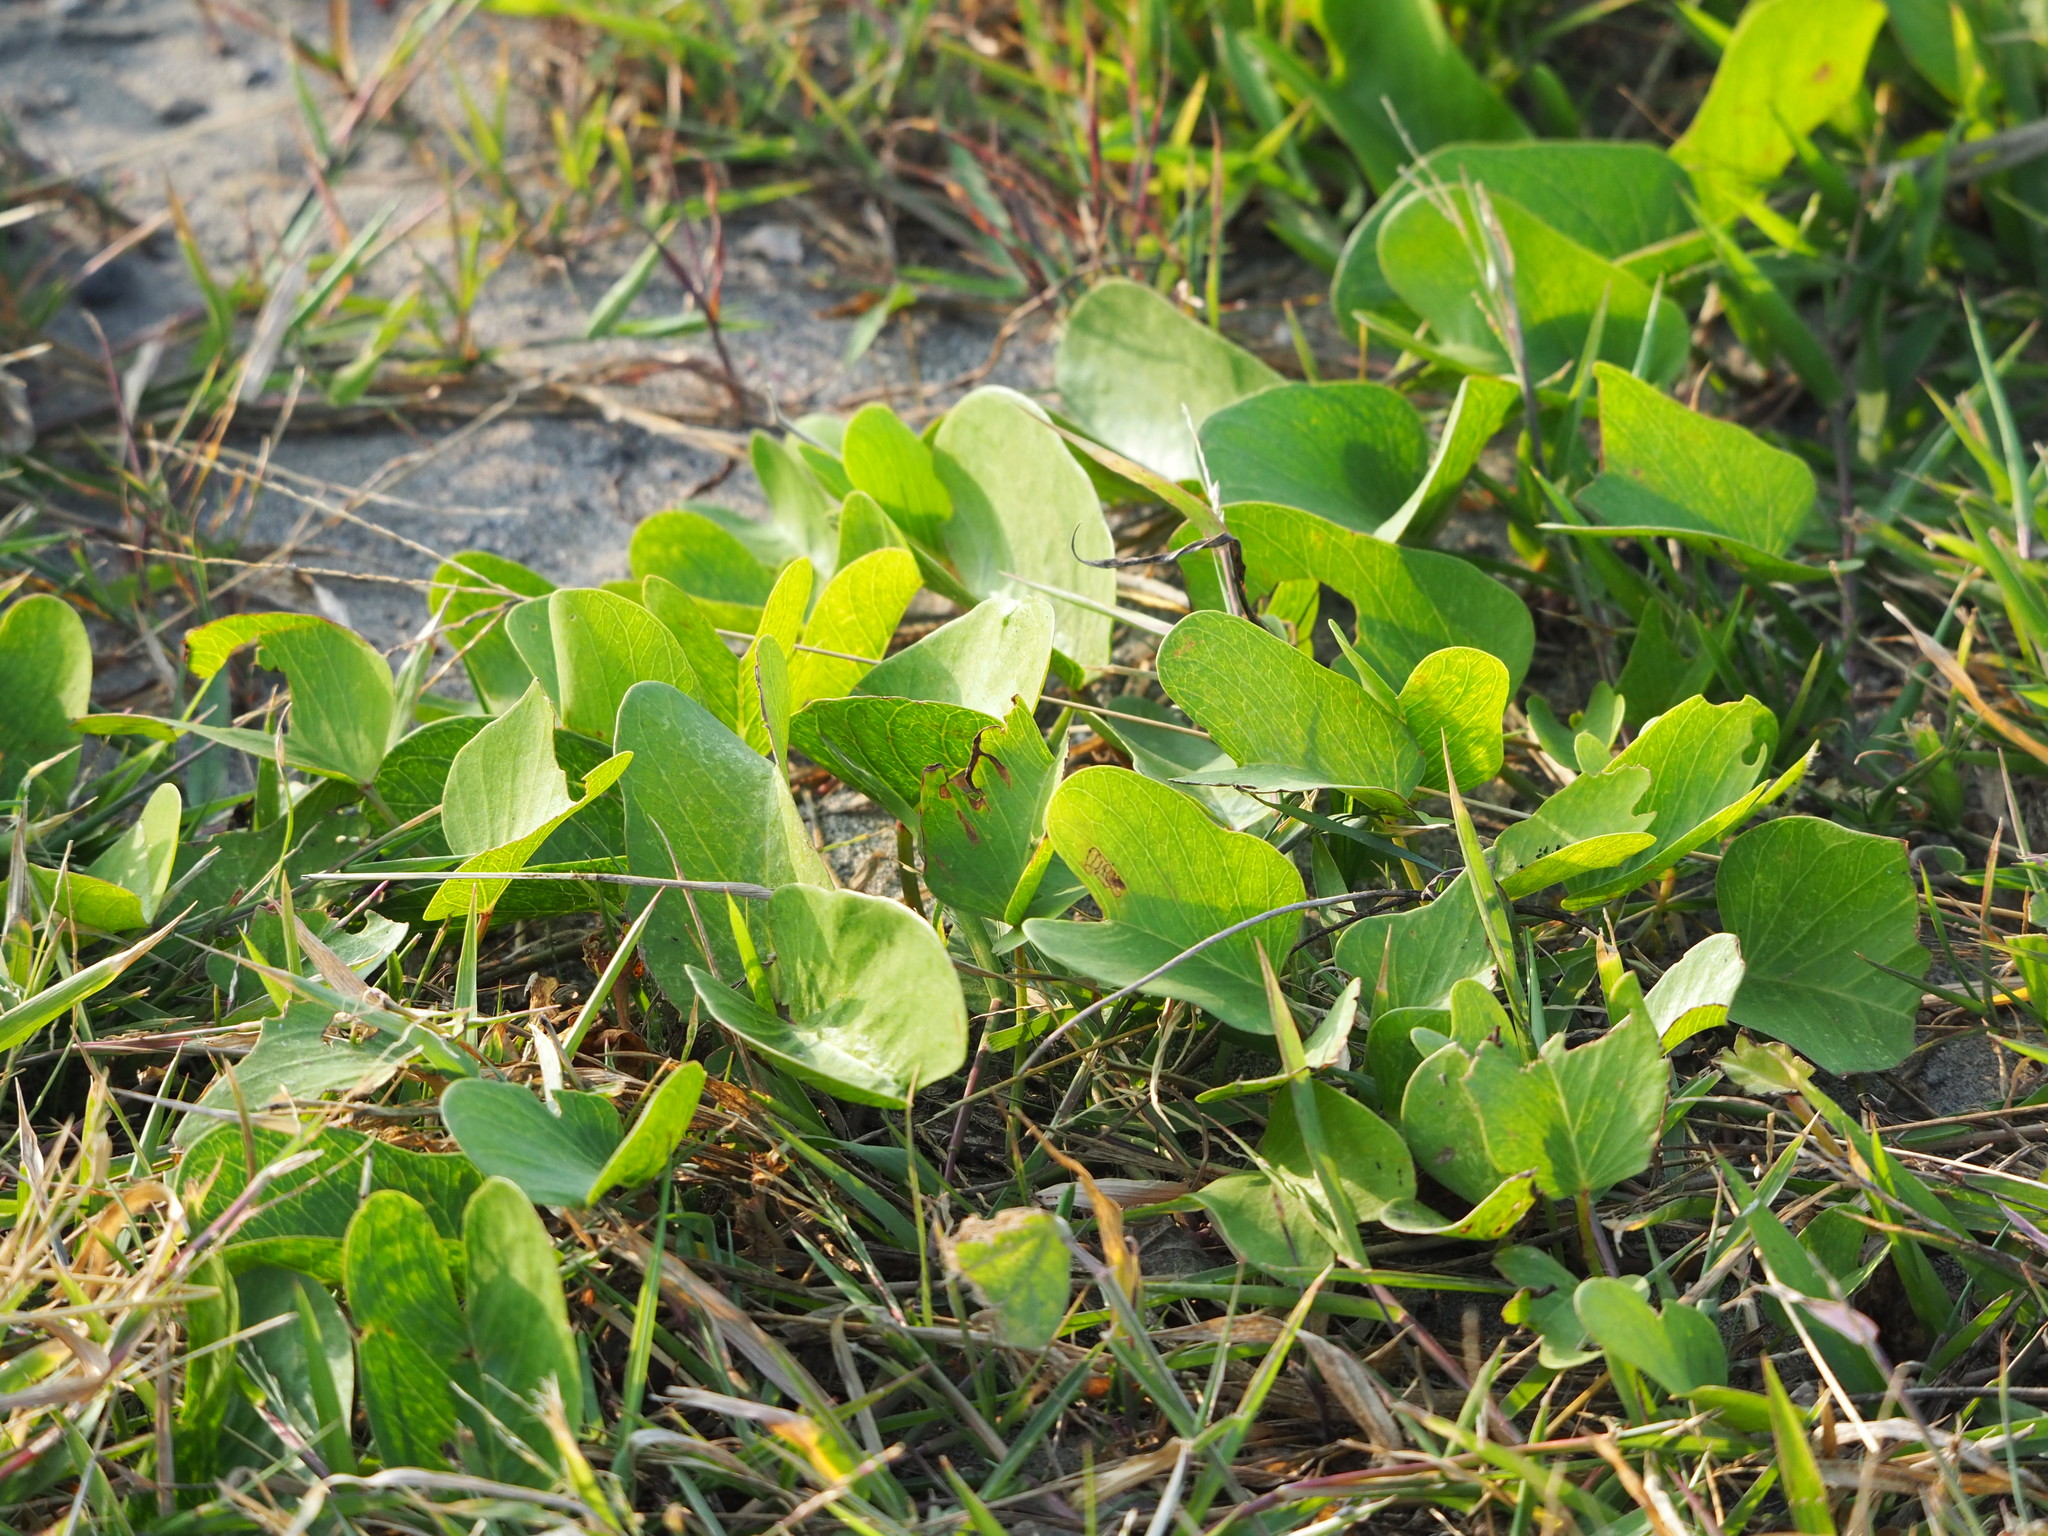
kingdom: Plantae
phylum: Tracheophyta
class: Magnoliopsida
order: Solanales
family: Convolvulaceae
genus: Ipomoea
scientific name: Ipomoea pes-caprae
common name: Beach morning glory
